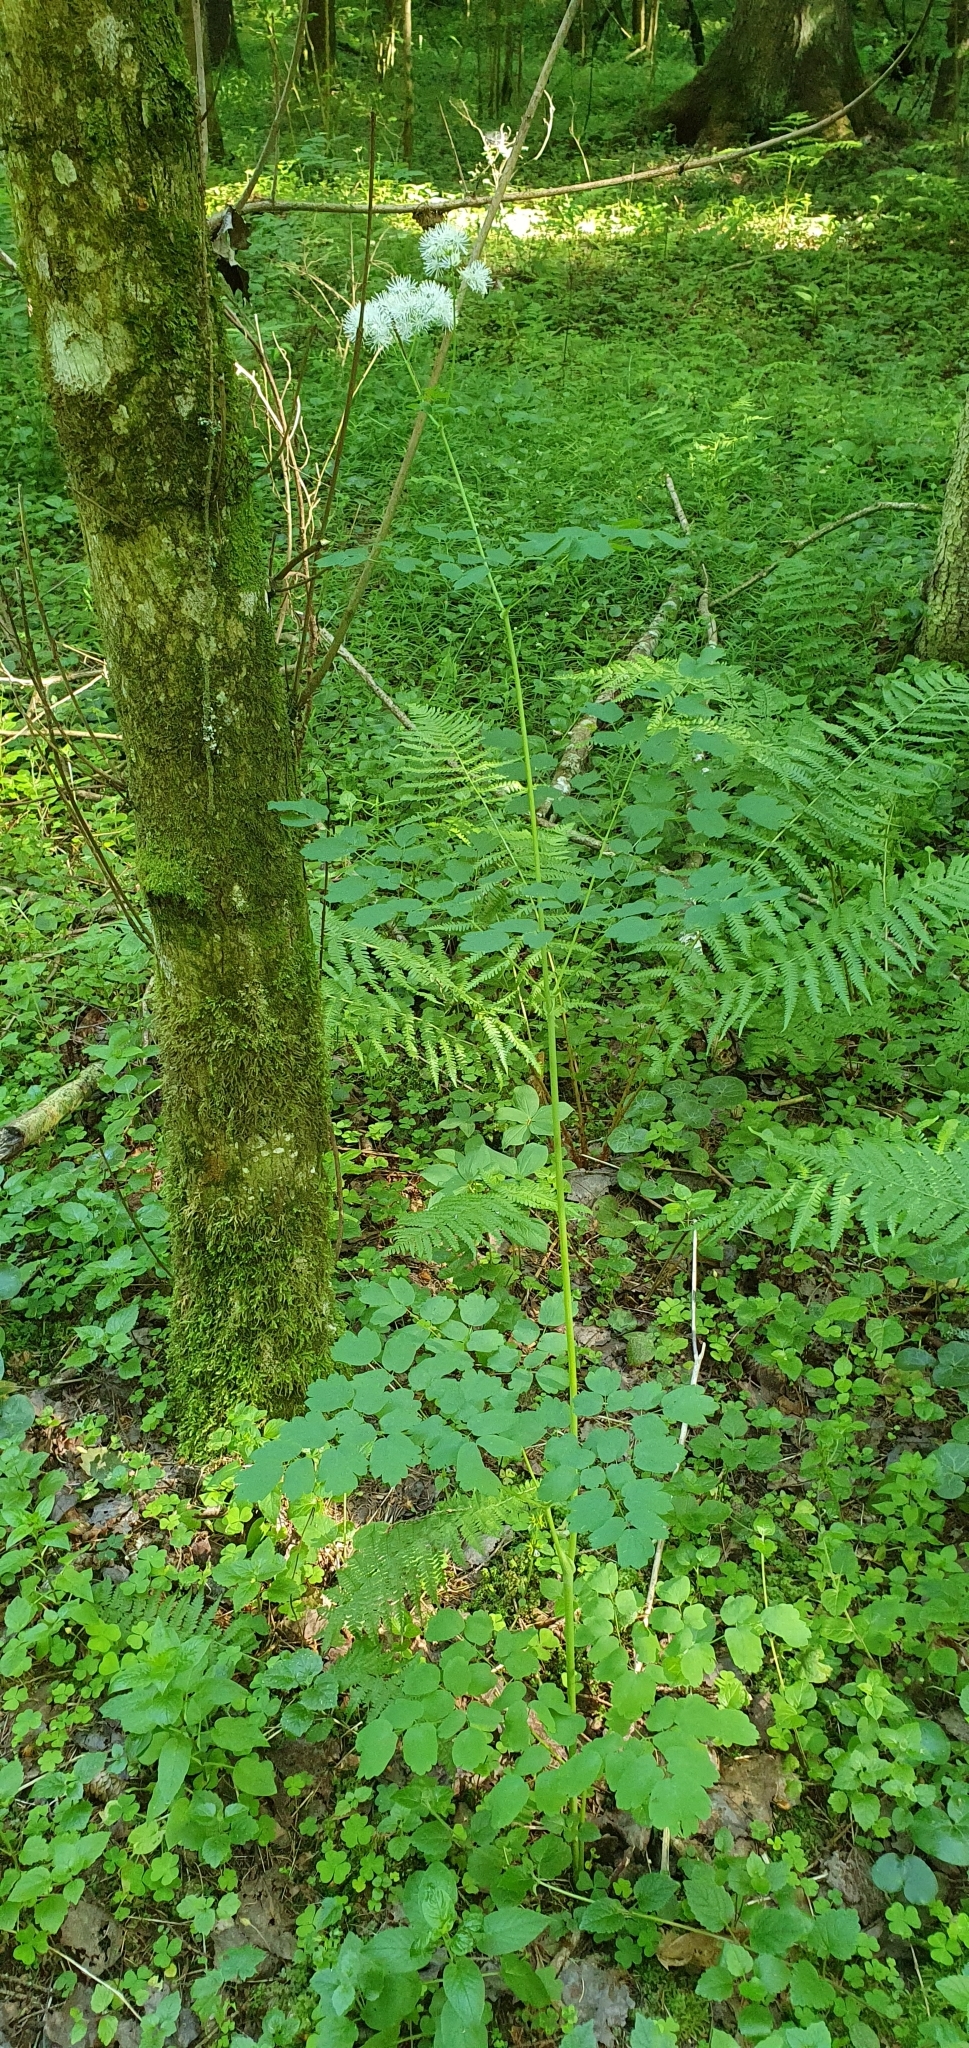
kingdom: Plantae
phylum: Tracheophyta
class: Magnoliopsida
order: Ranunculales
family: Ranunculaceae
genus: Thalictrum
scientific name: Thalictrum aquilegiifolium
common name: French meadow-rue
